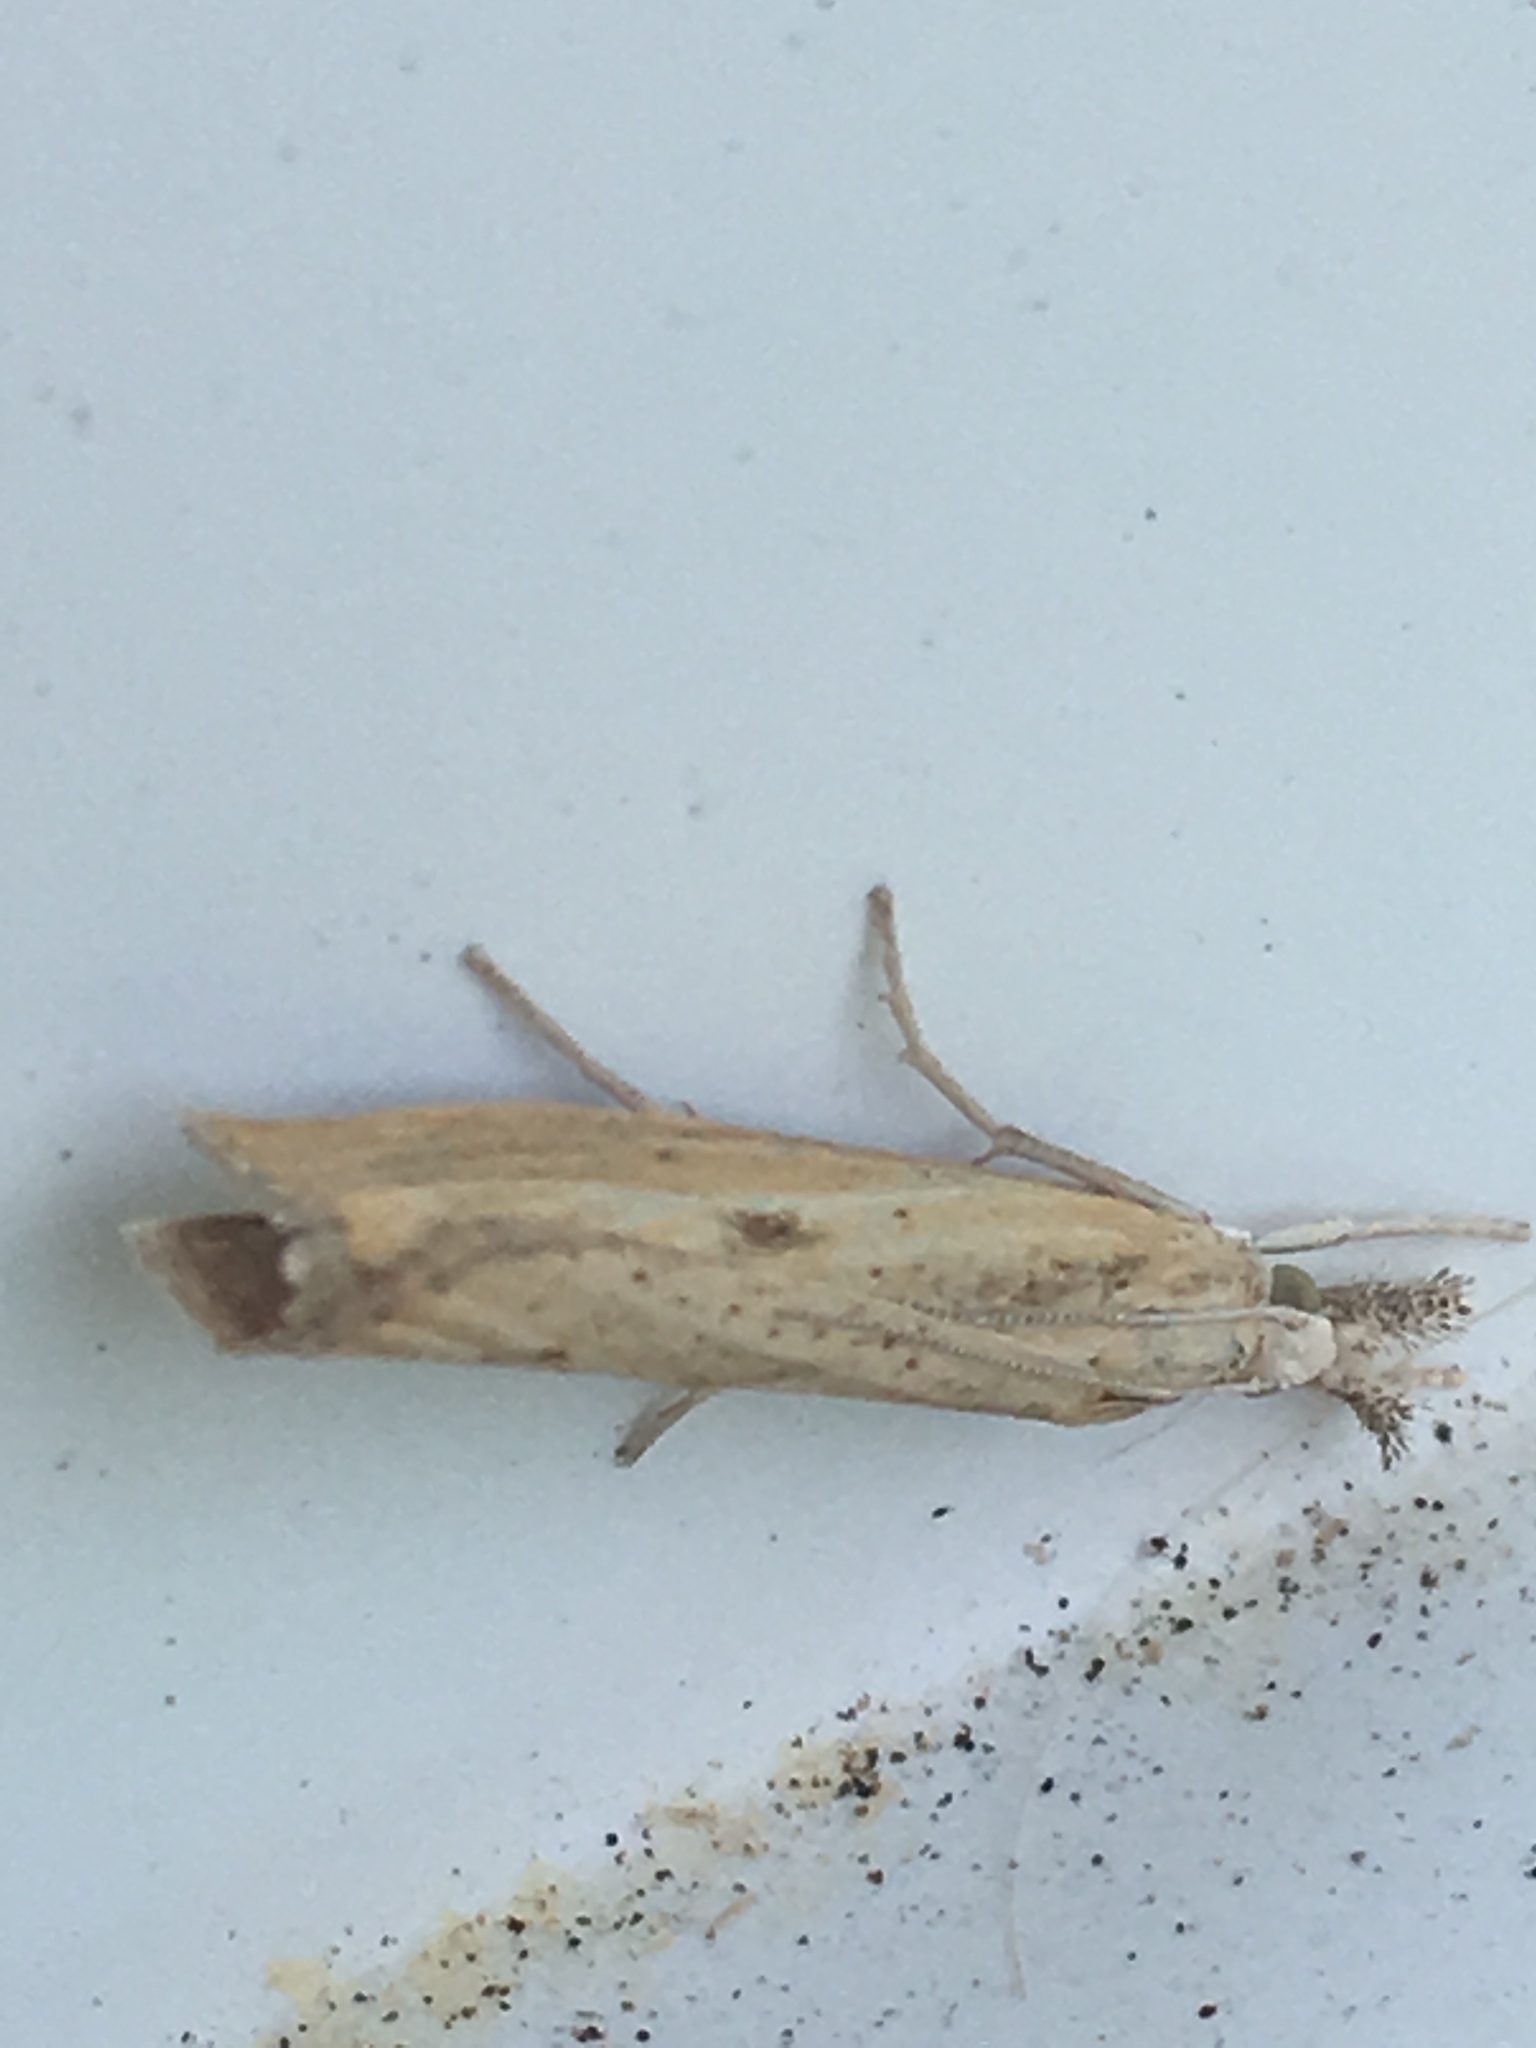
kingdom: Animalia
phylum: Arthropoda
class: Insecta
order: Lepidoptera
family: Crambidae
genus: Agriphila
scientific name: Agriphila inquinatella
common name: Barred grass-veneer
